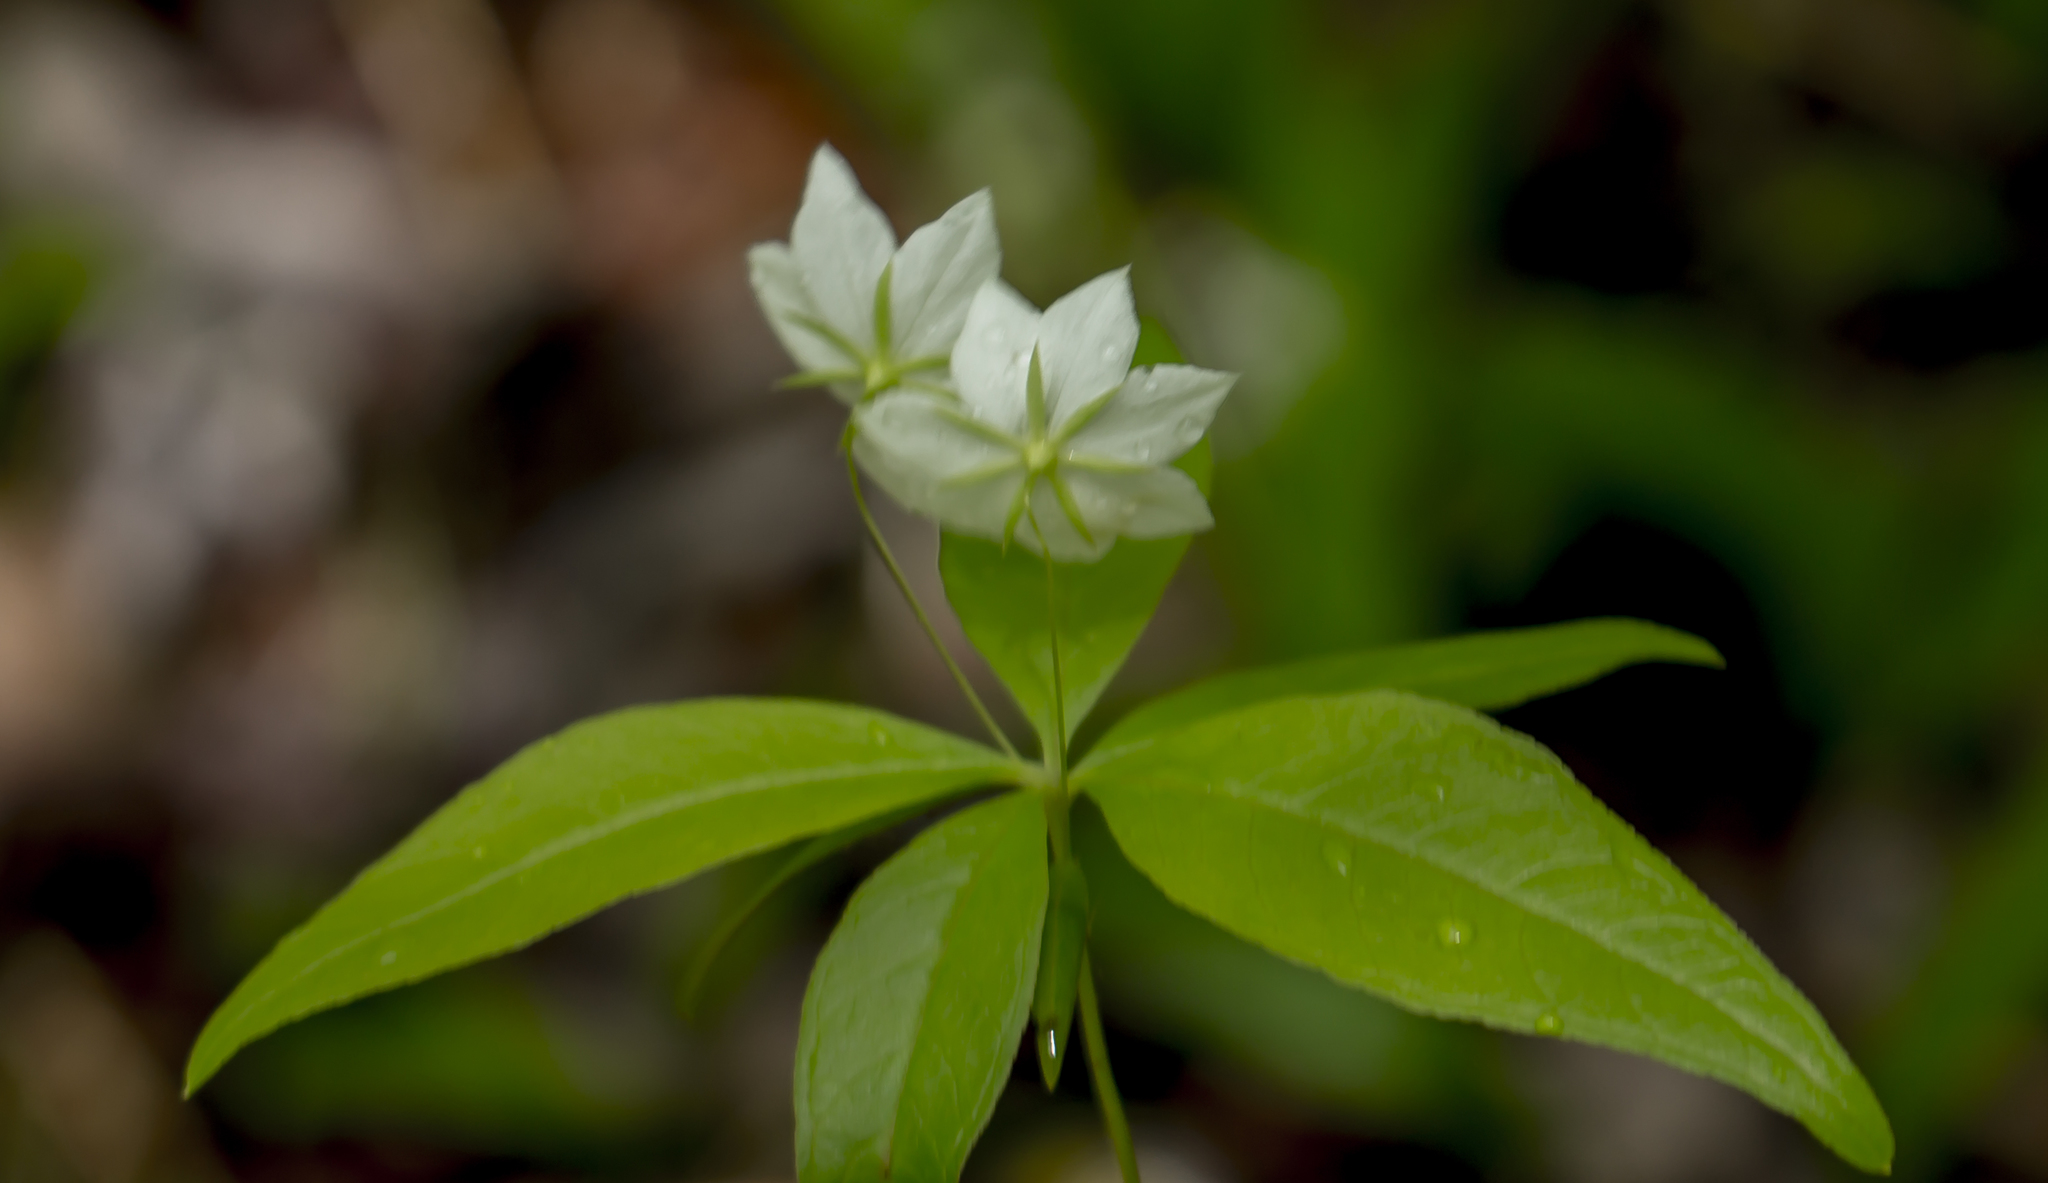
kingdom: Plantae
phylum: Tracheophyta
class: Magnoliopsida
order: Ericales
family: Primulaceae
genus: Lysimachia
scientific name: Lysimachia borealis
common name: American starflower
